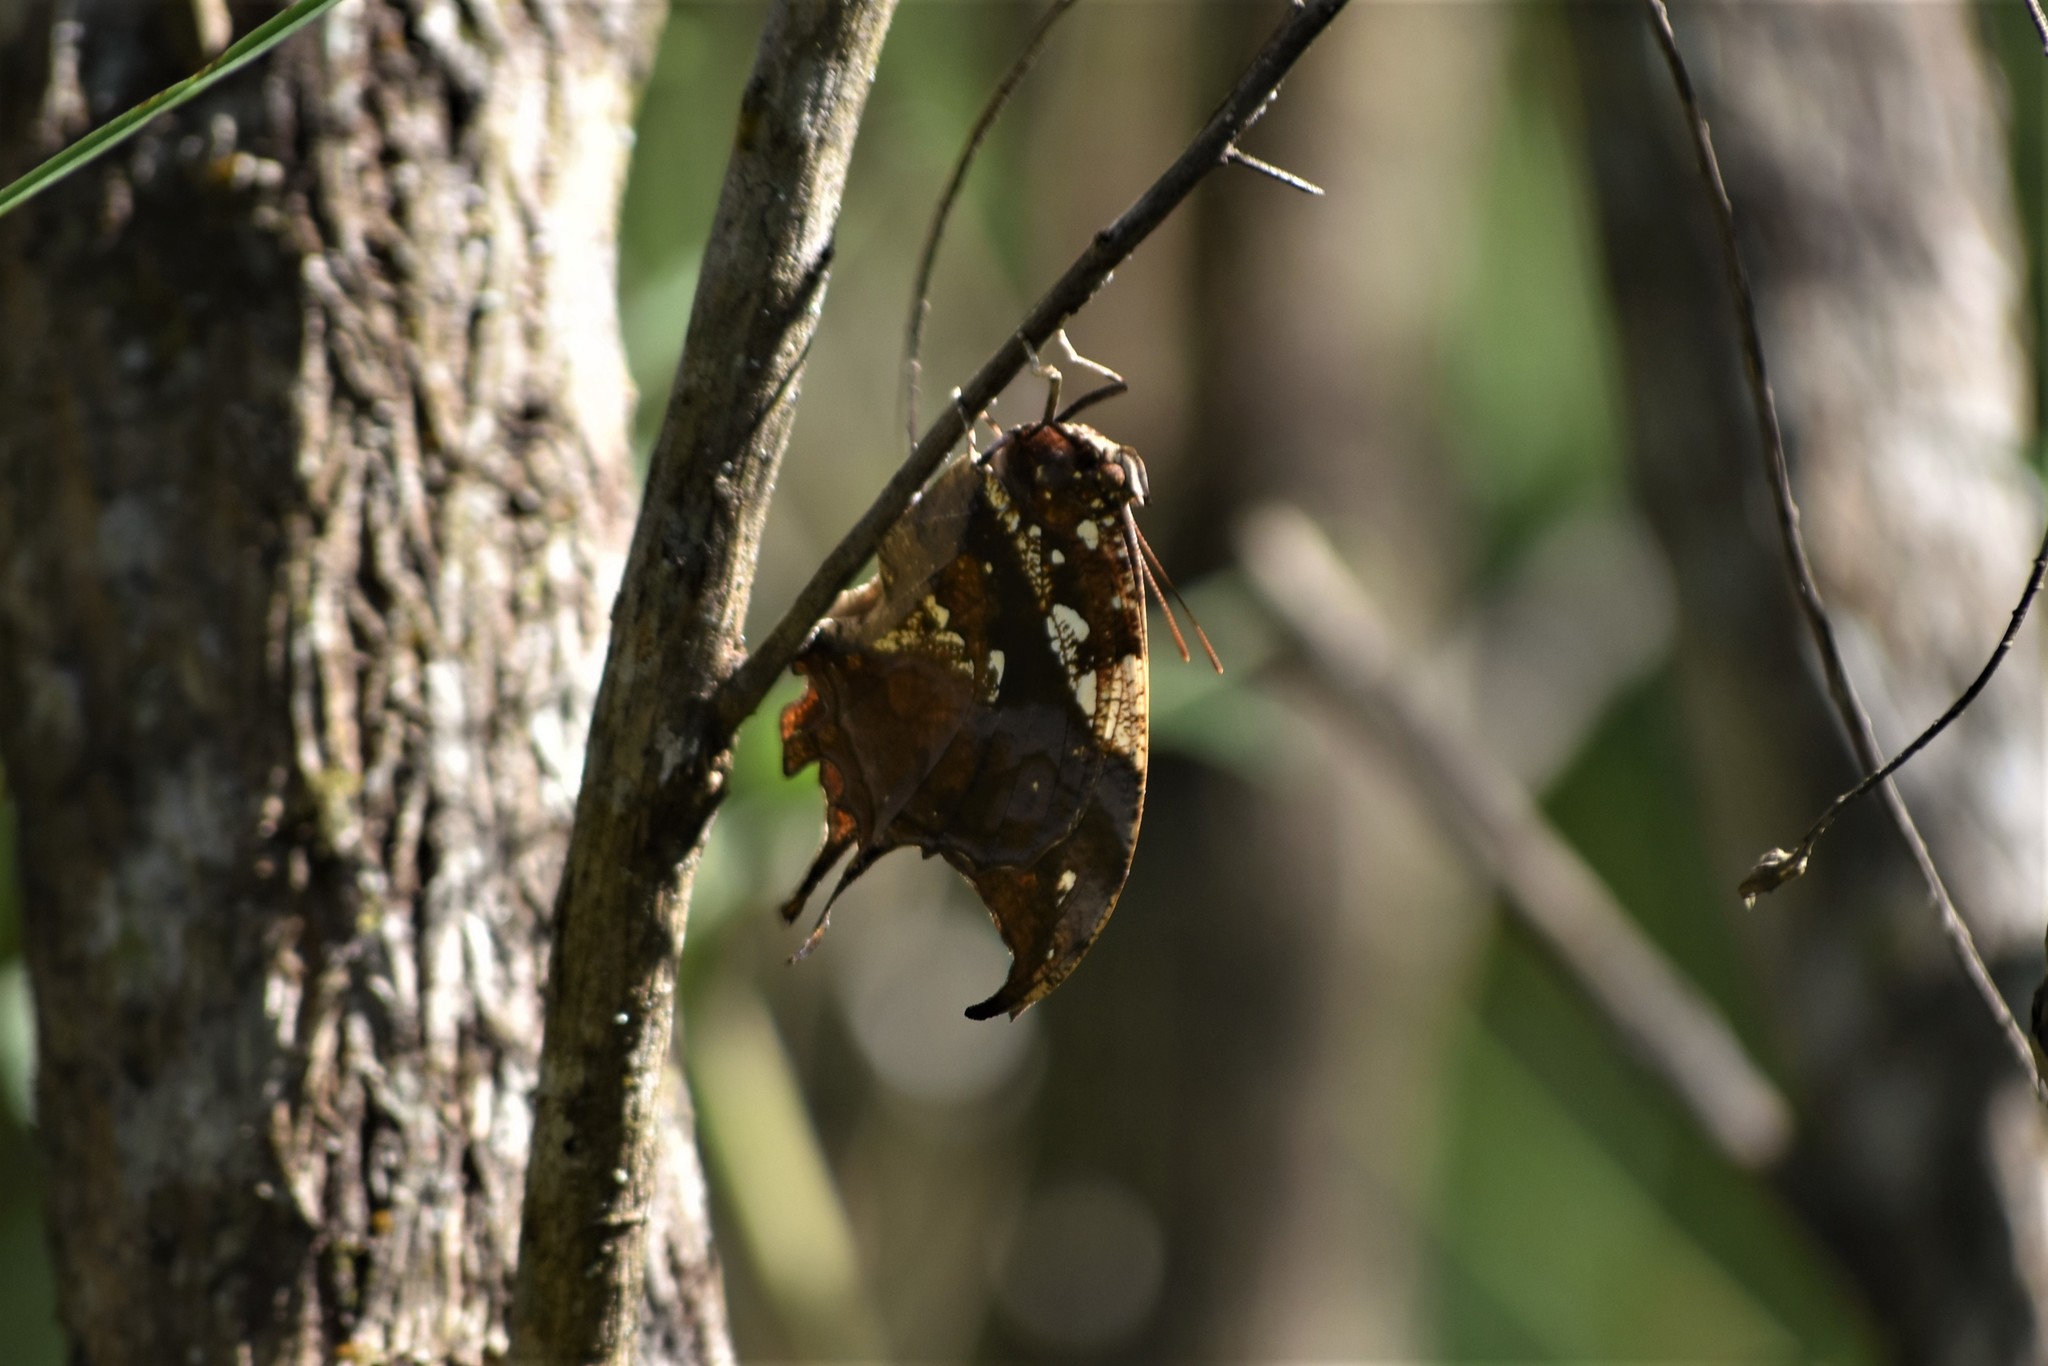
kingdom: Animalia
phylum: Arthropoda
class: Insecta
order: Lepidoptera
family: Nymphalidae
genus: Hypna
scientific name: Hypna clytemnestra
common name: Silver-studded leafwing
